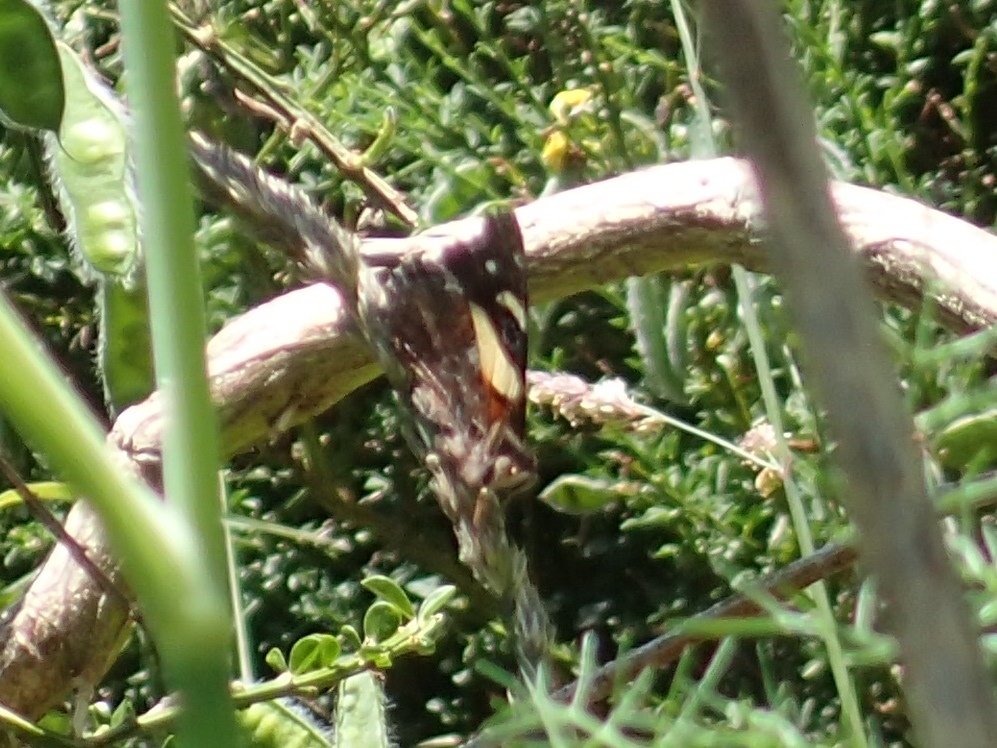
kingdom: Animalia
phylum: Arthropoda
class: Insecta
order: Lepidoptera
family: Nymphalidae
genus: Vanessa
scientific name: Vanessa itea
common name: Yellow admiral
